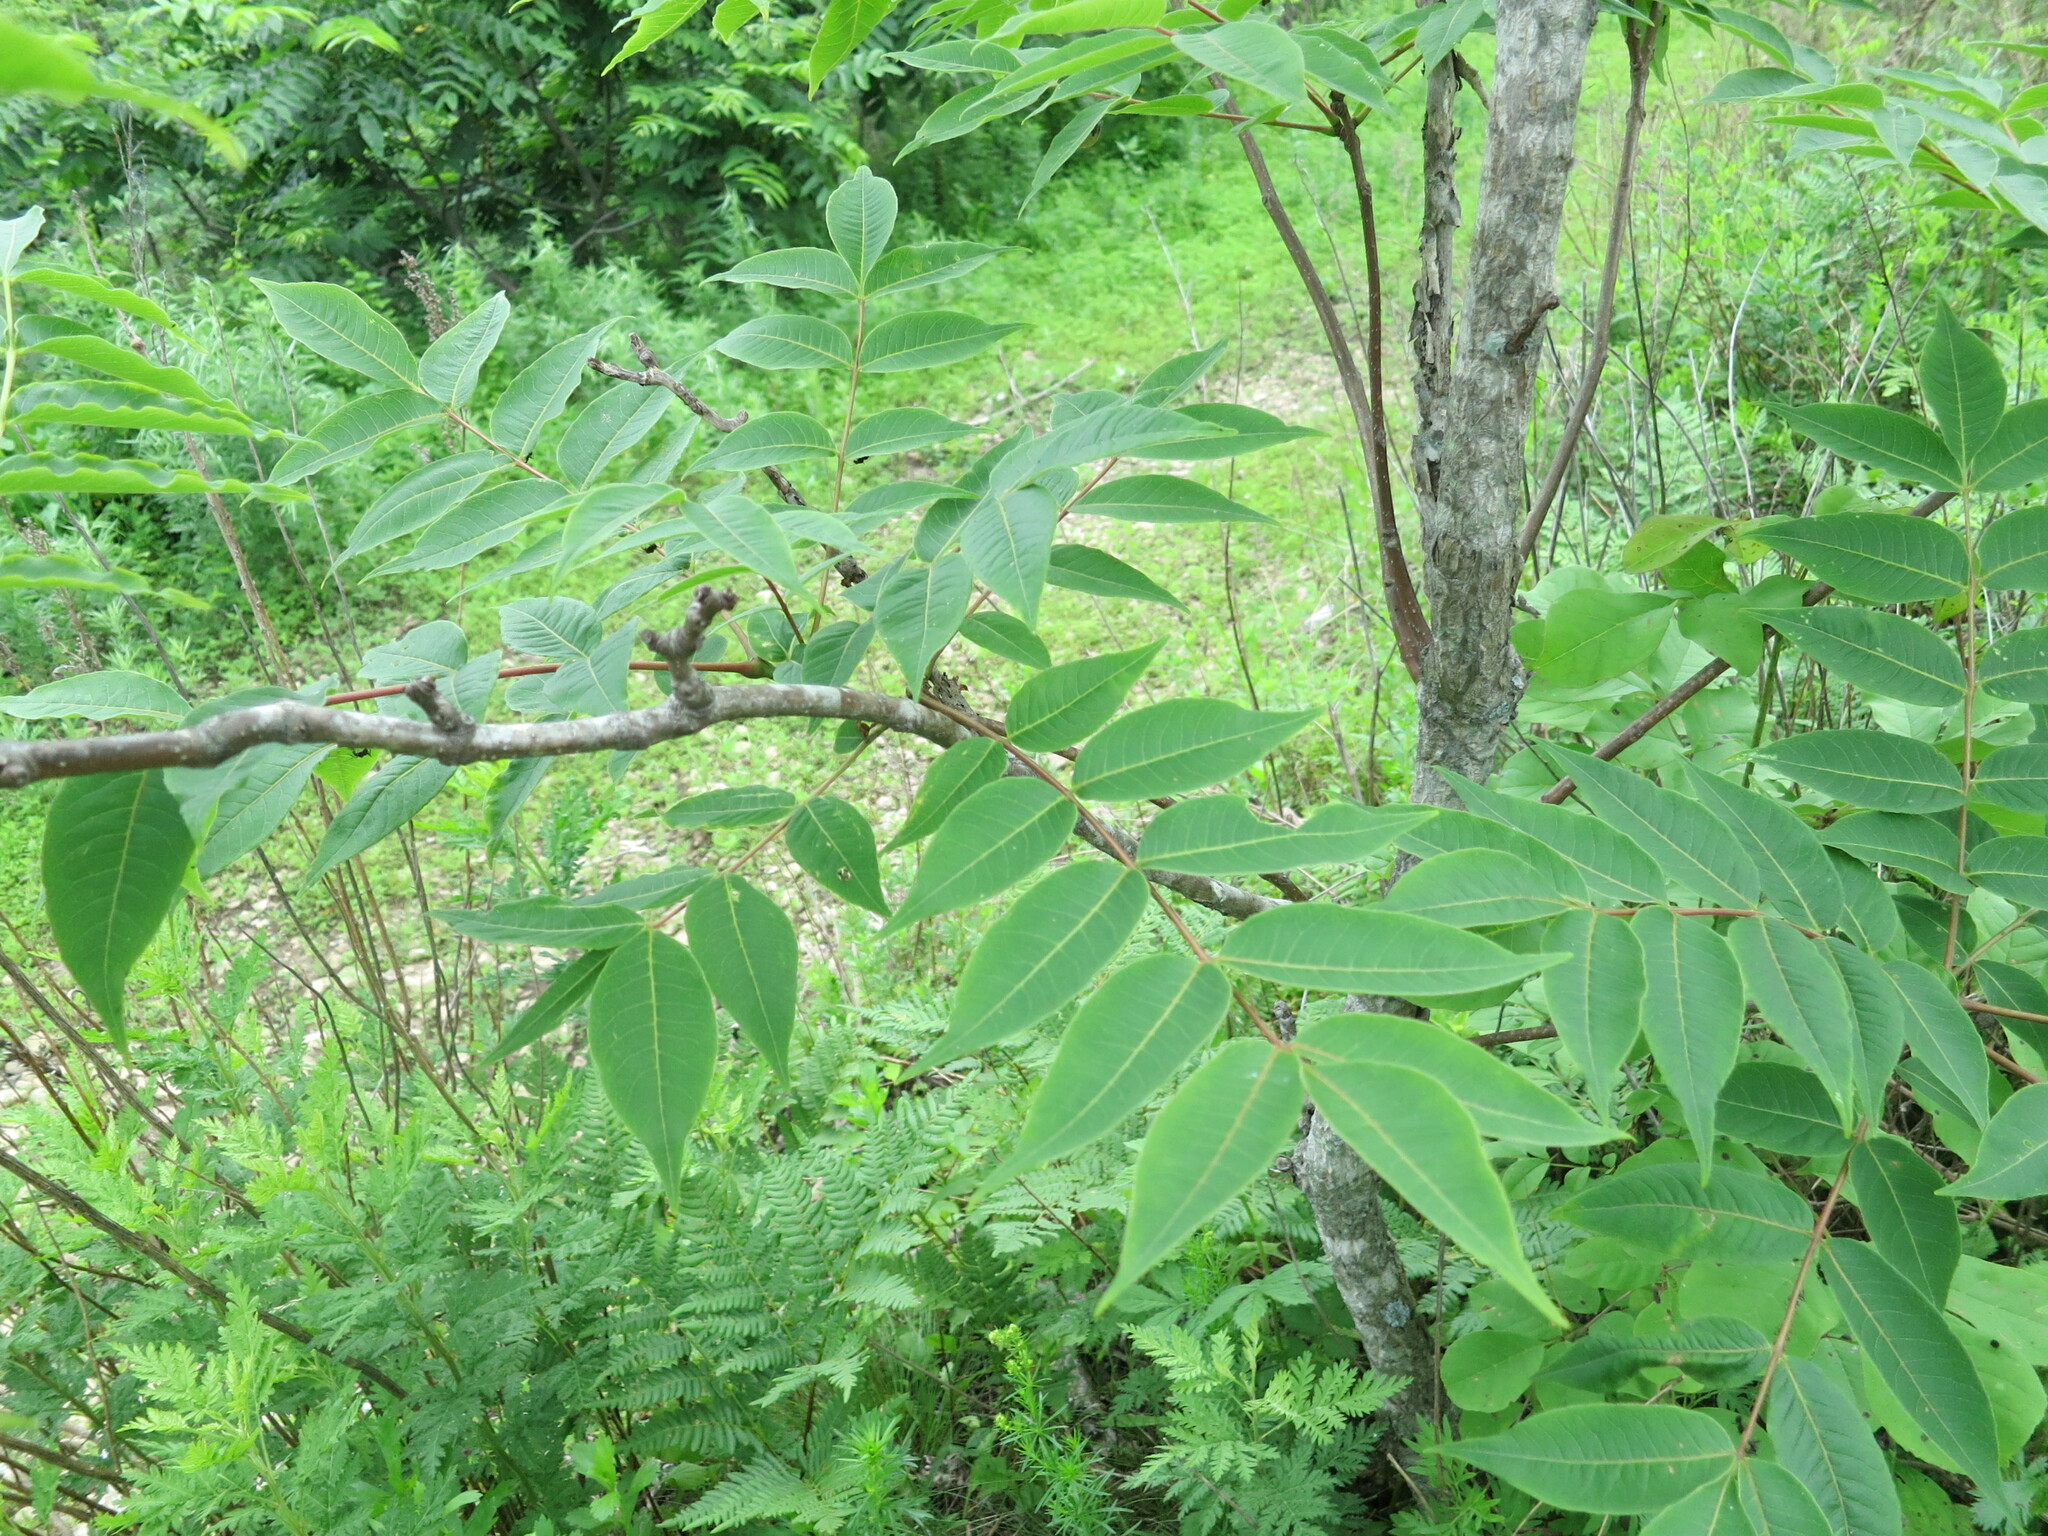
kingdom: Plantae
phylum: Tracheophyta
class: Magnoliopsida
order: Sapindales
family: Rutaceae
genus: Phellodendron
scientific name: Phellodendron amurense
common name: Amur corktree
